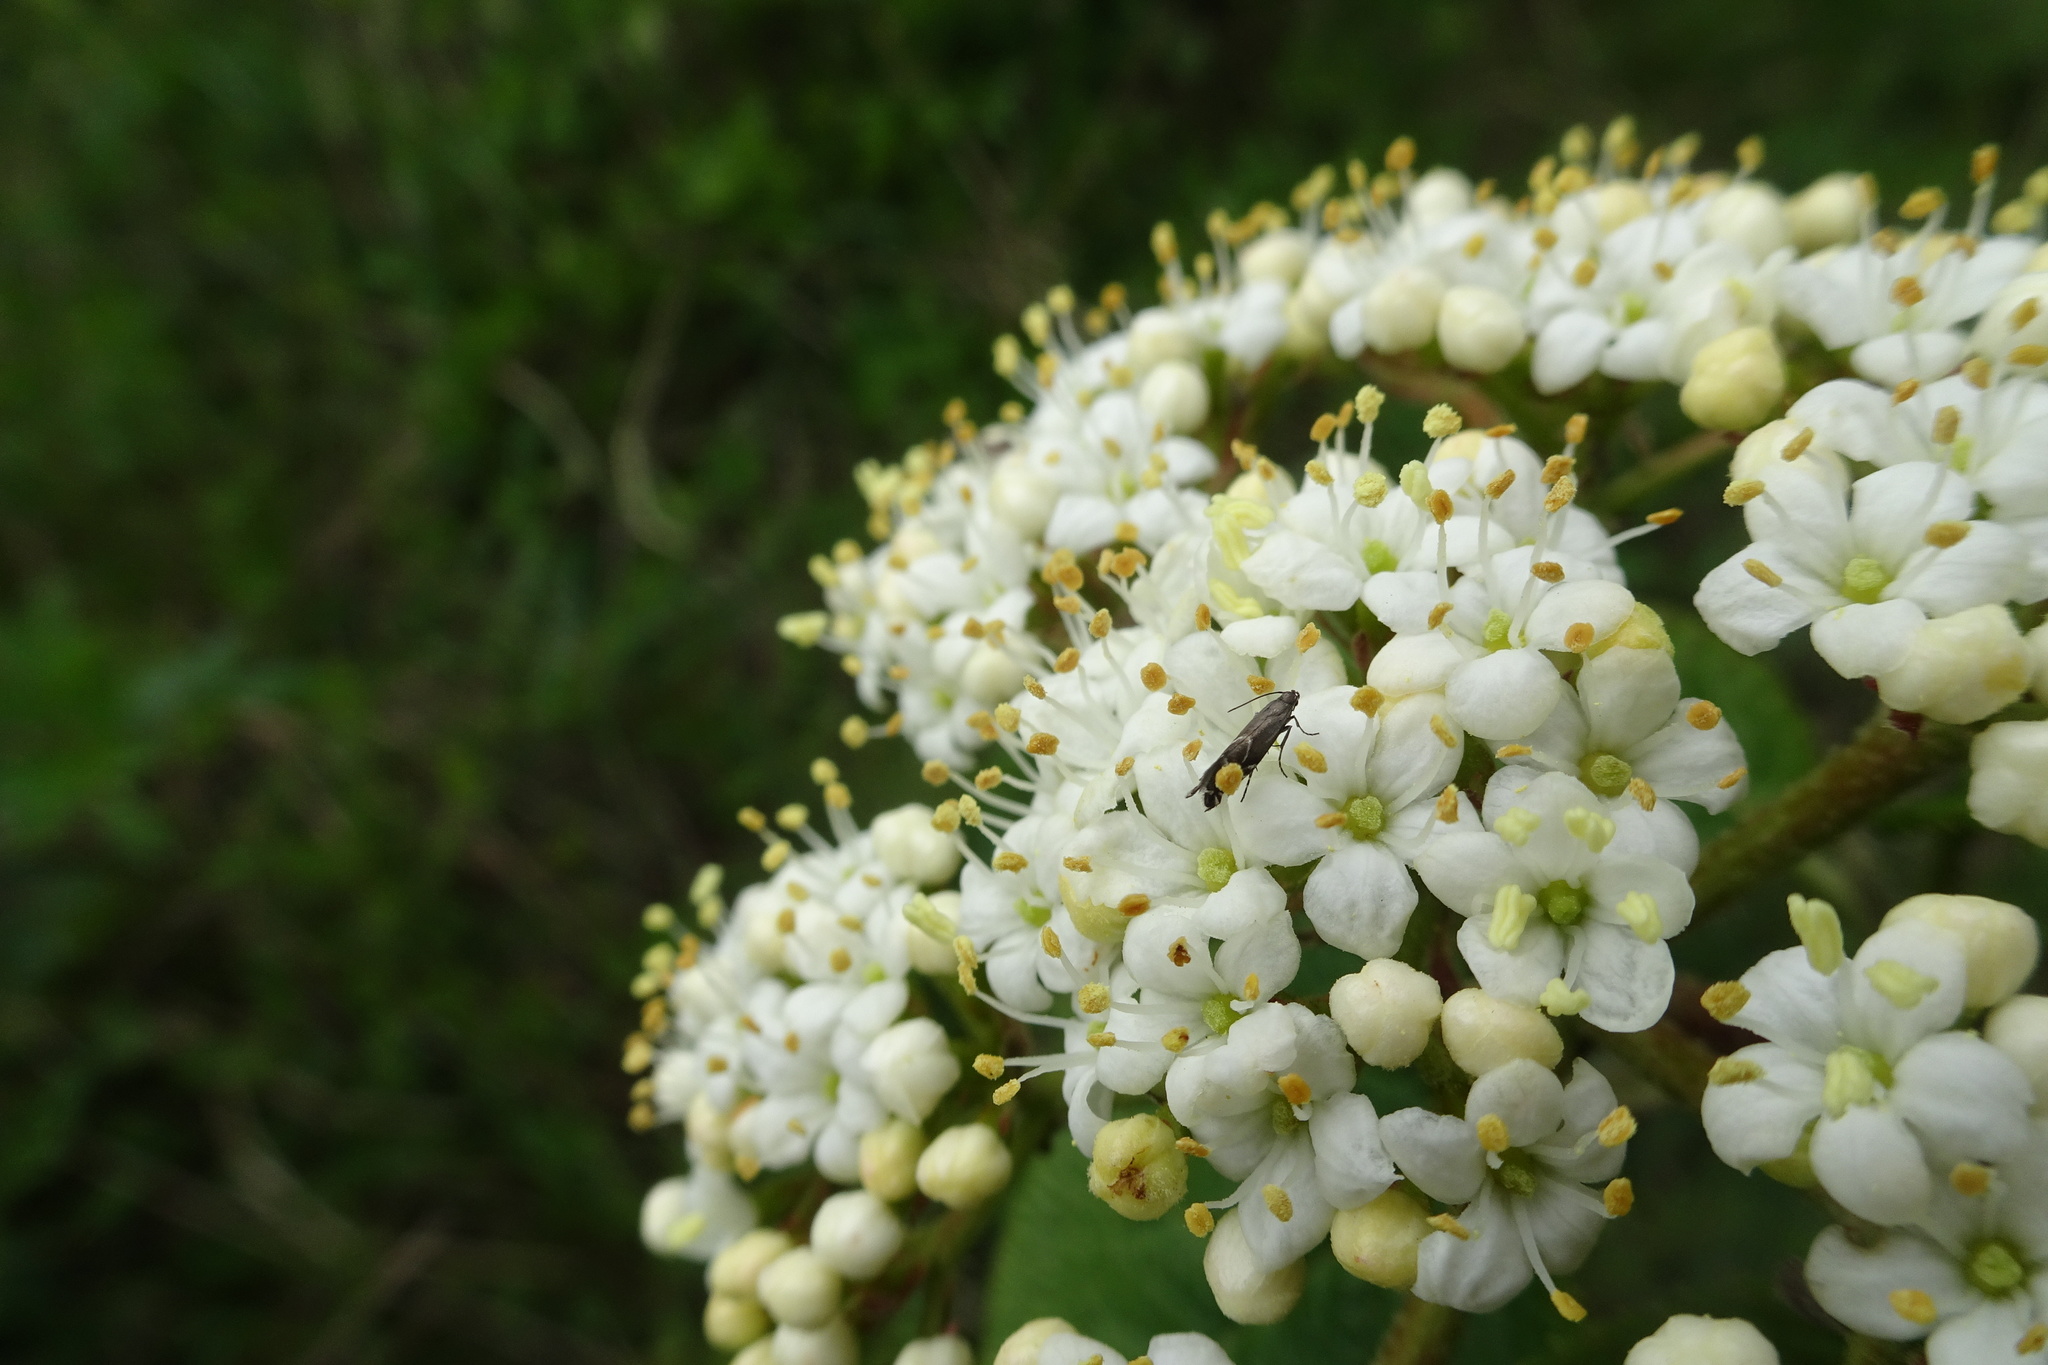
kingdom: Animalia
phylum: Arthropoda
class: Insecta
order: Lepidoptera
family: Glyphipterigidae
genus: Glyphipterix
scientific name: Glyphipterix simpliciella
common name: Cocksfoot moth
